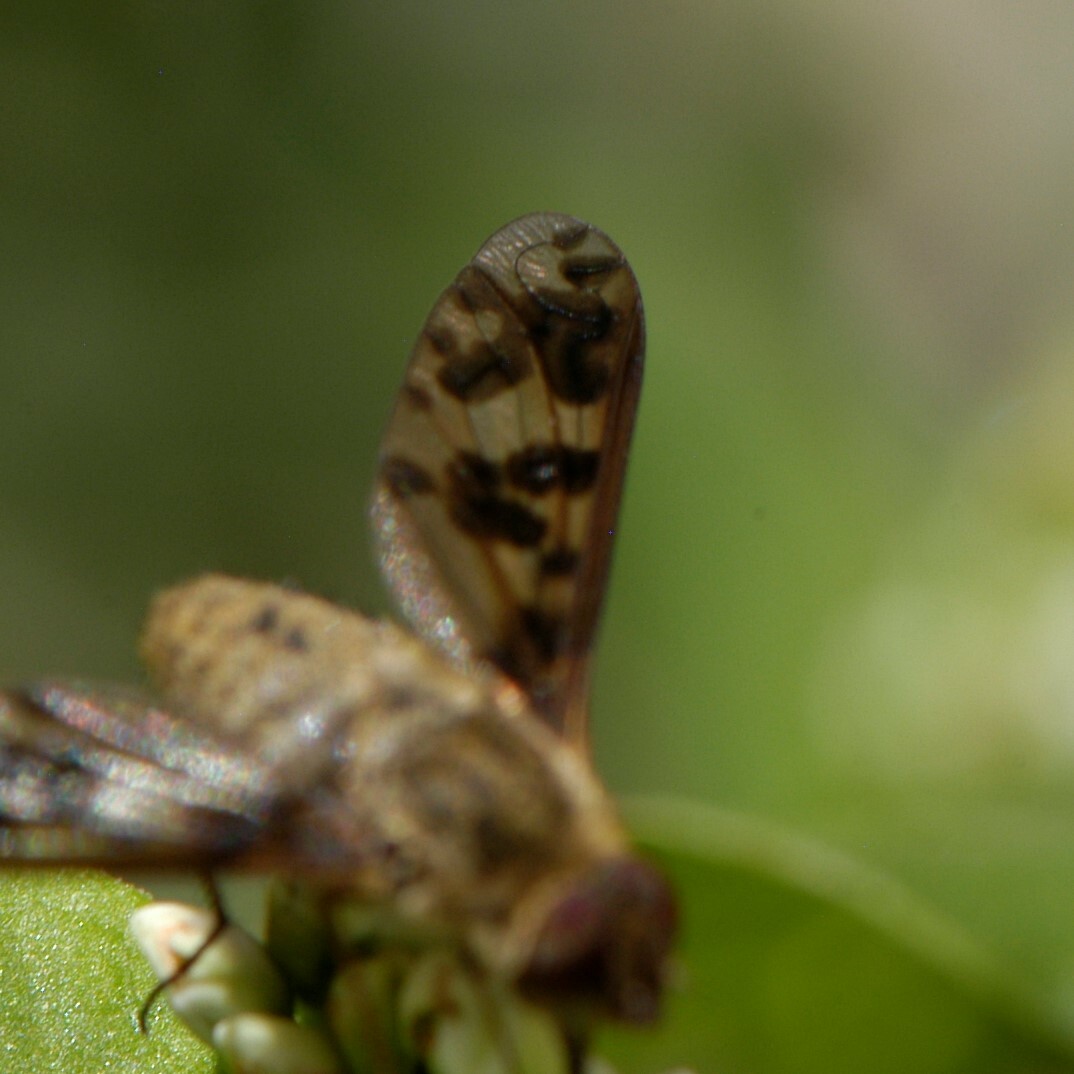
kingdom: Animalia
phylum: Arthropoda
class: Insecta
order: Diptera
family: Bombyliidae
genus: Dipalta
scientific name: Dipalta serpentina
